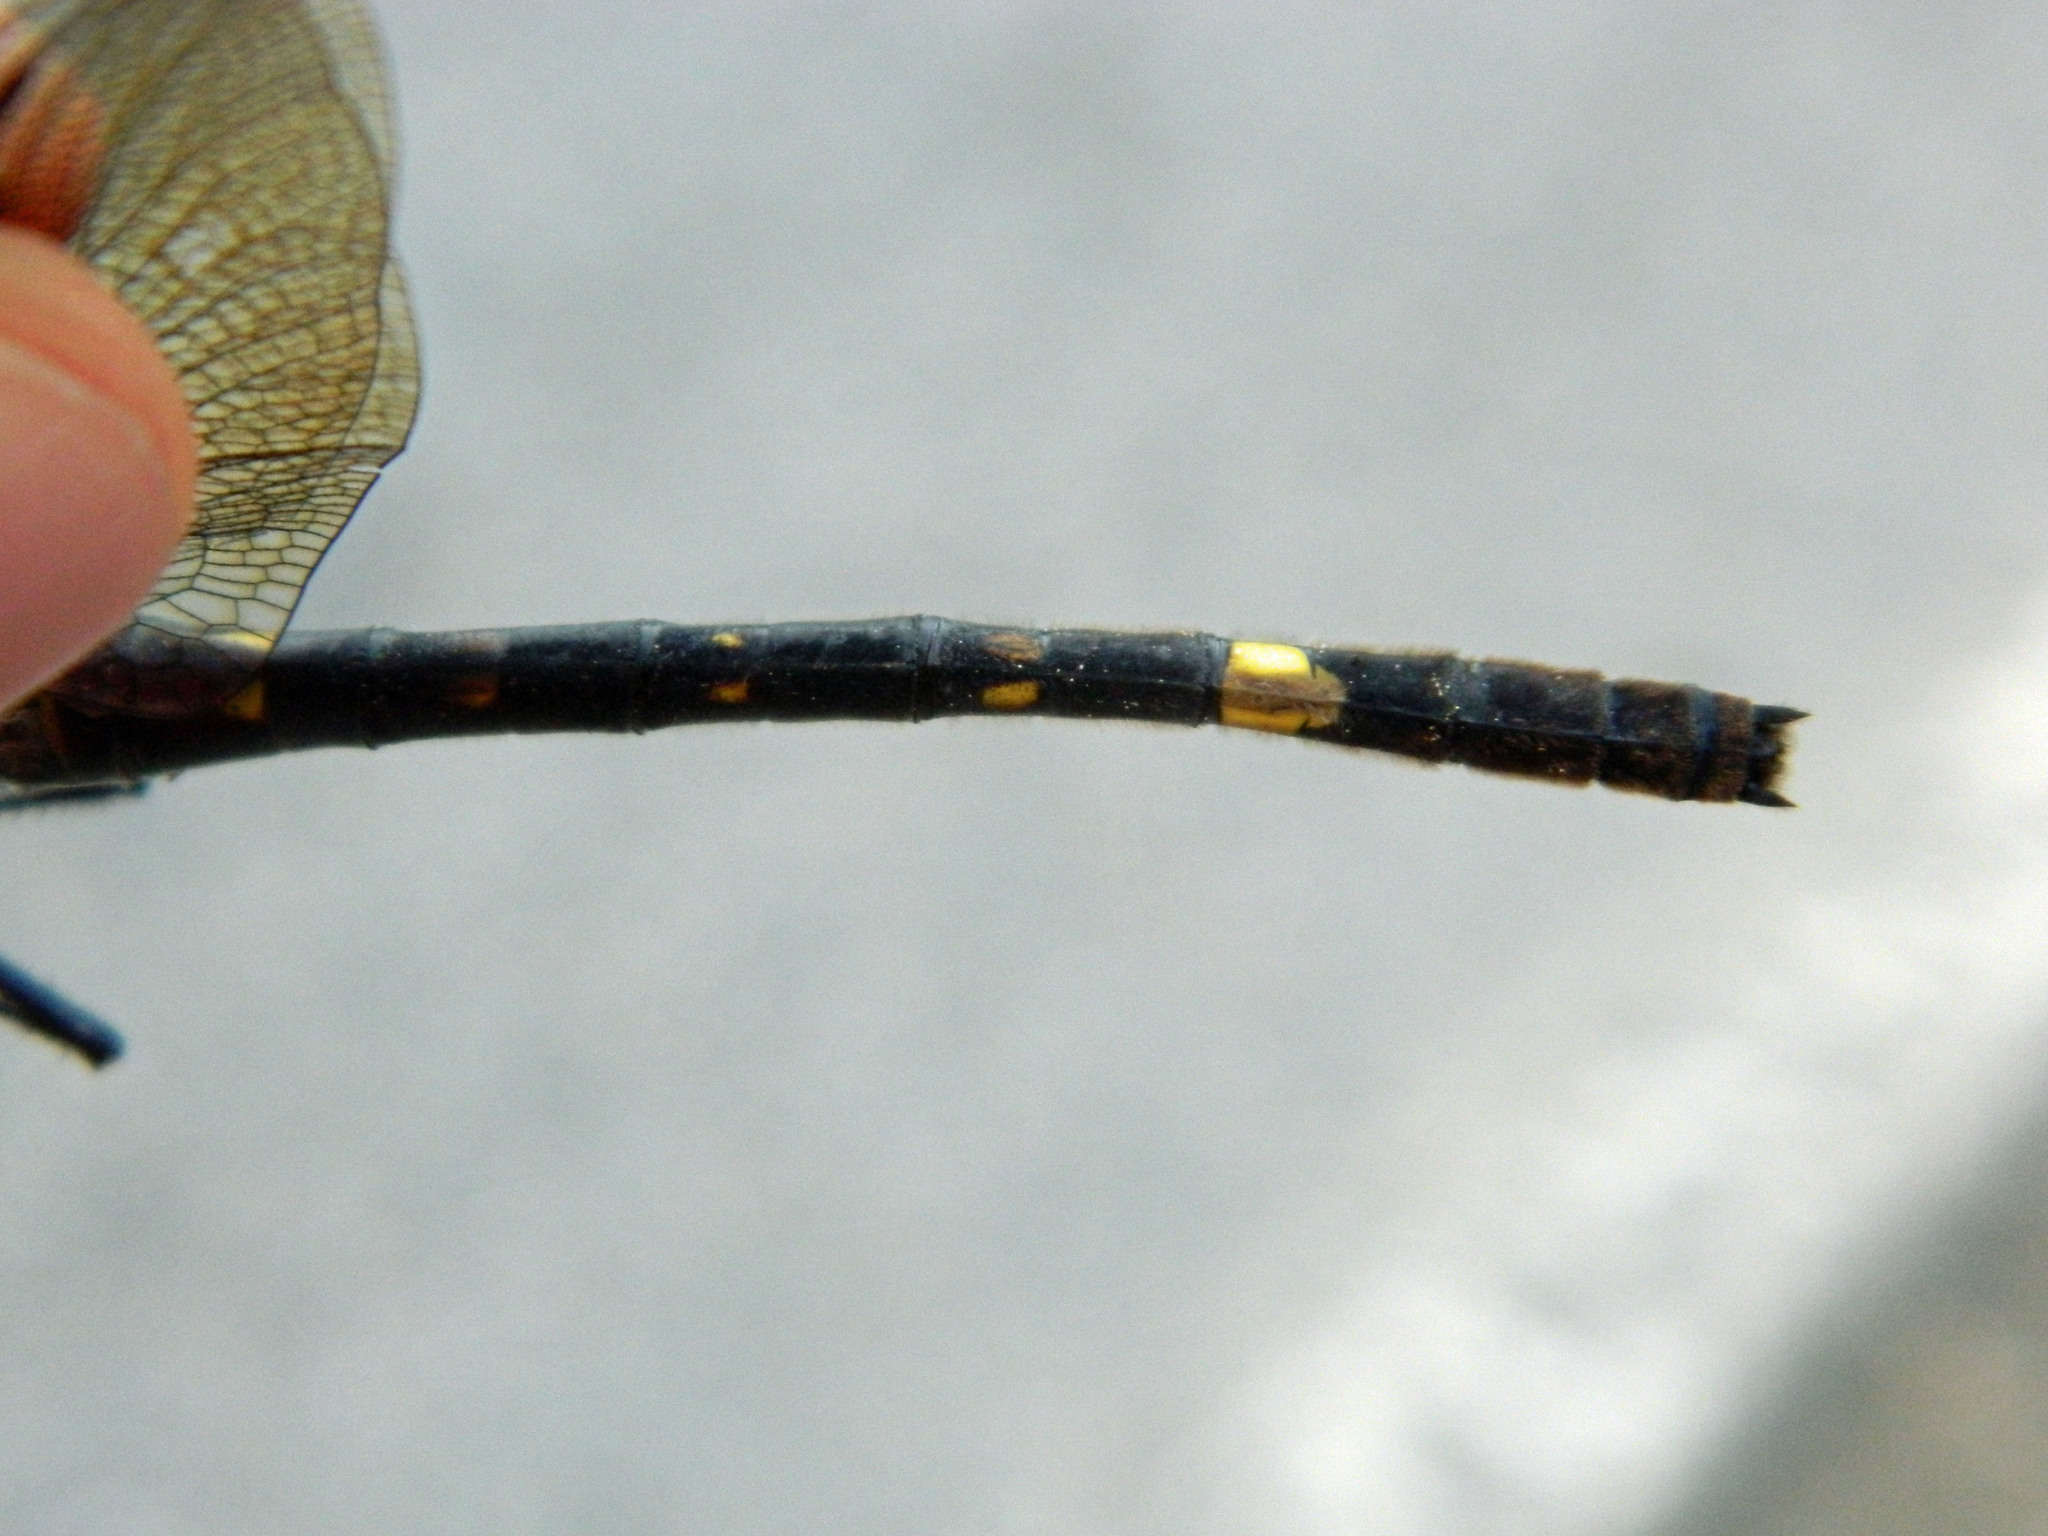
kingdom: Animalia
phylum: Arthropoda
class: Insecta
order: Odonata
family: Macromiidae
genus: Macromia
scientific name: Macromia illinoiensis
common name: Swift river cruiser
